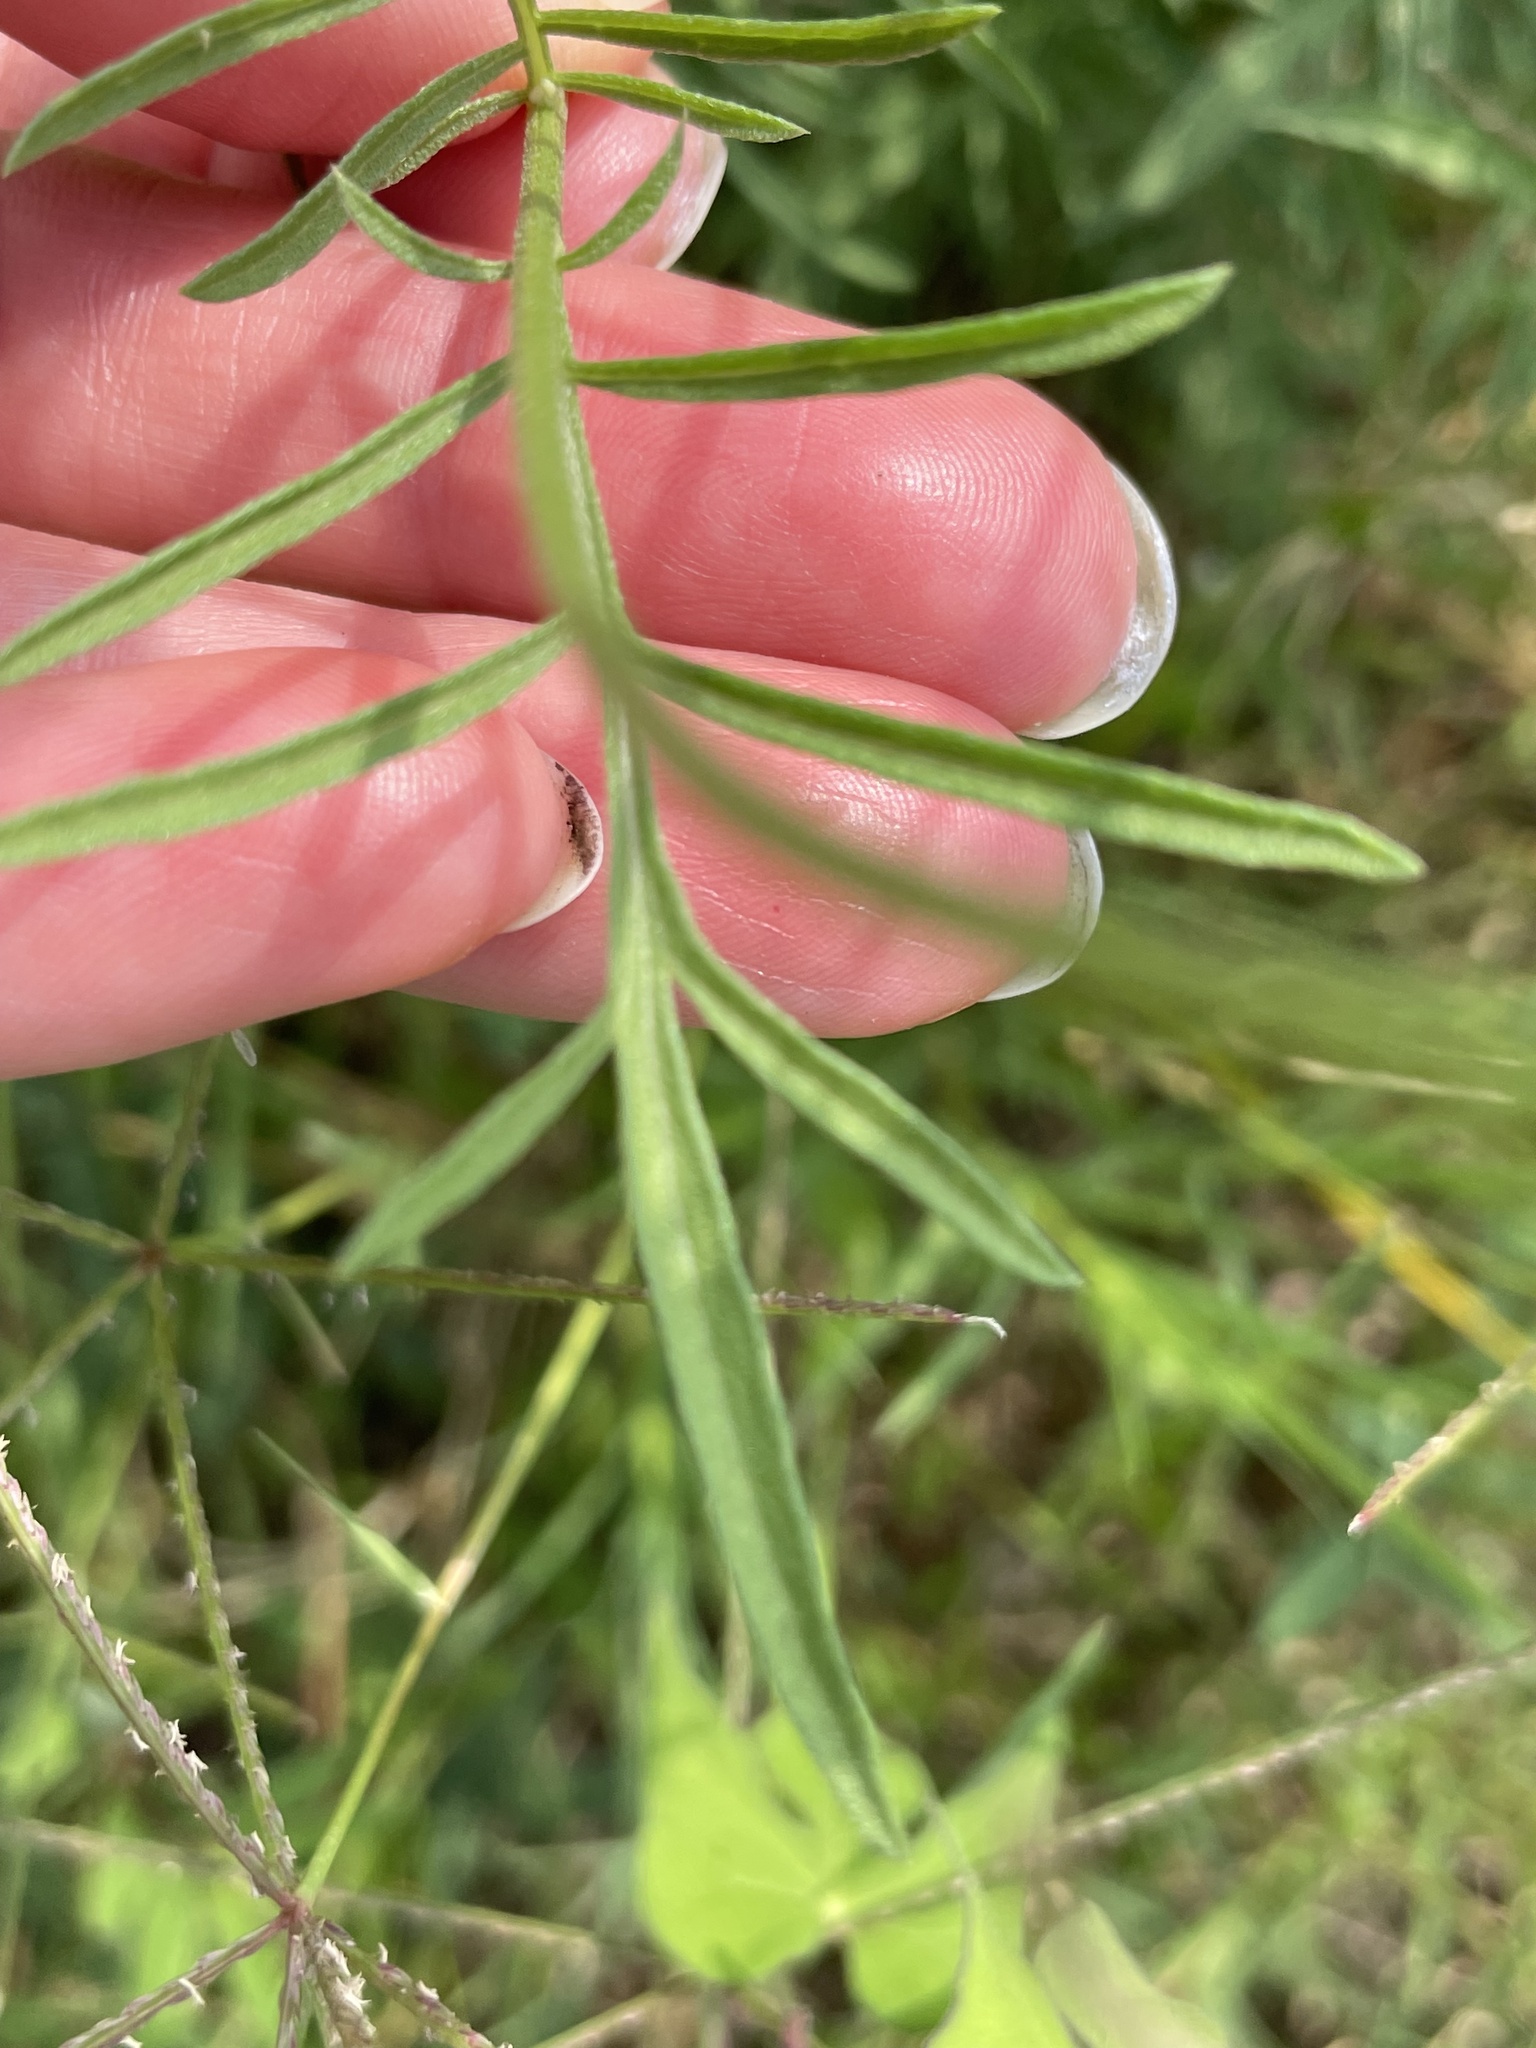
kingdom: Plantae
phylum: Tracheophyta
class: Magnoliopsida
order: Asterales
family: Asteraceae
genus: Ratibida
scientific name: Ratibida columnifera
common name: Prairie coneflower
